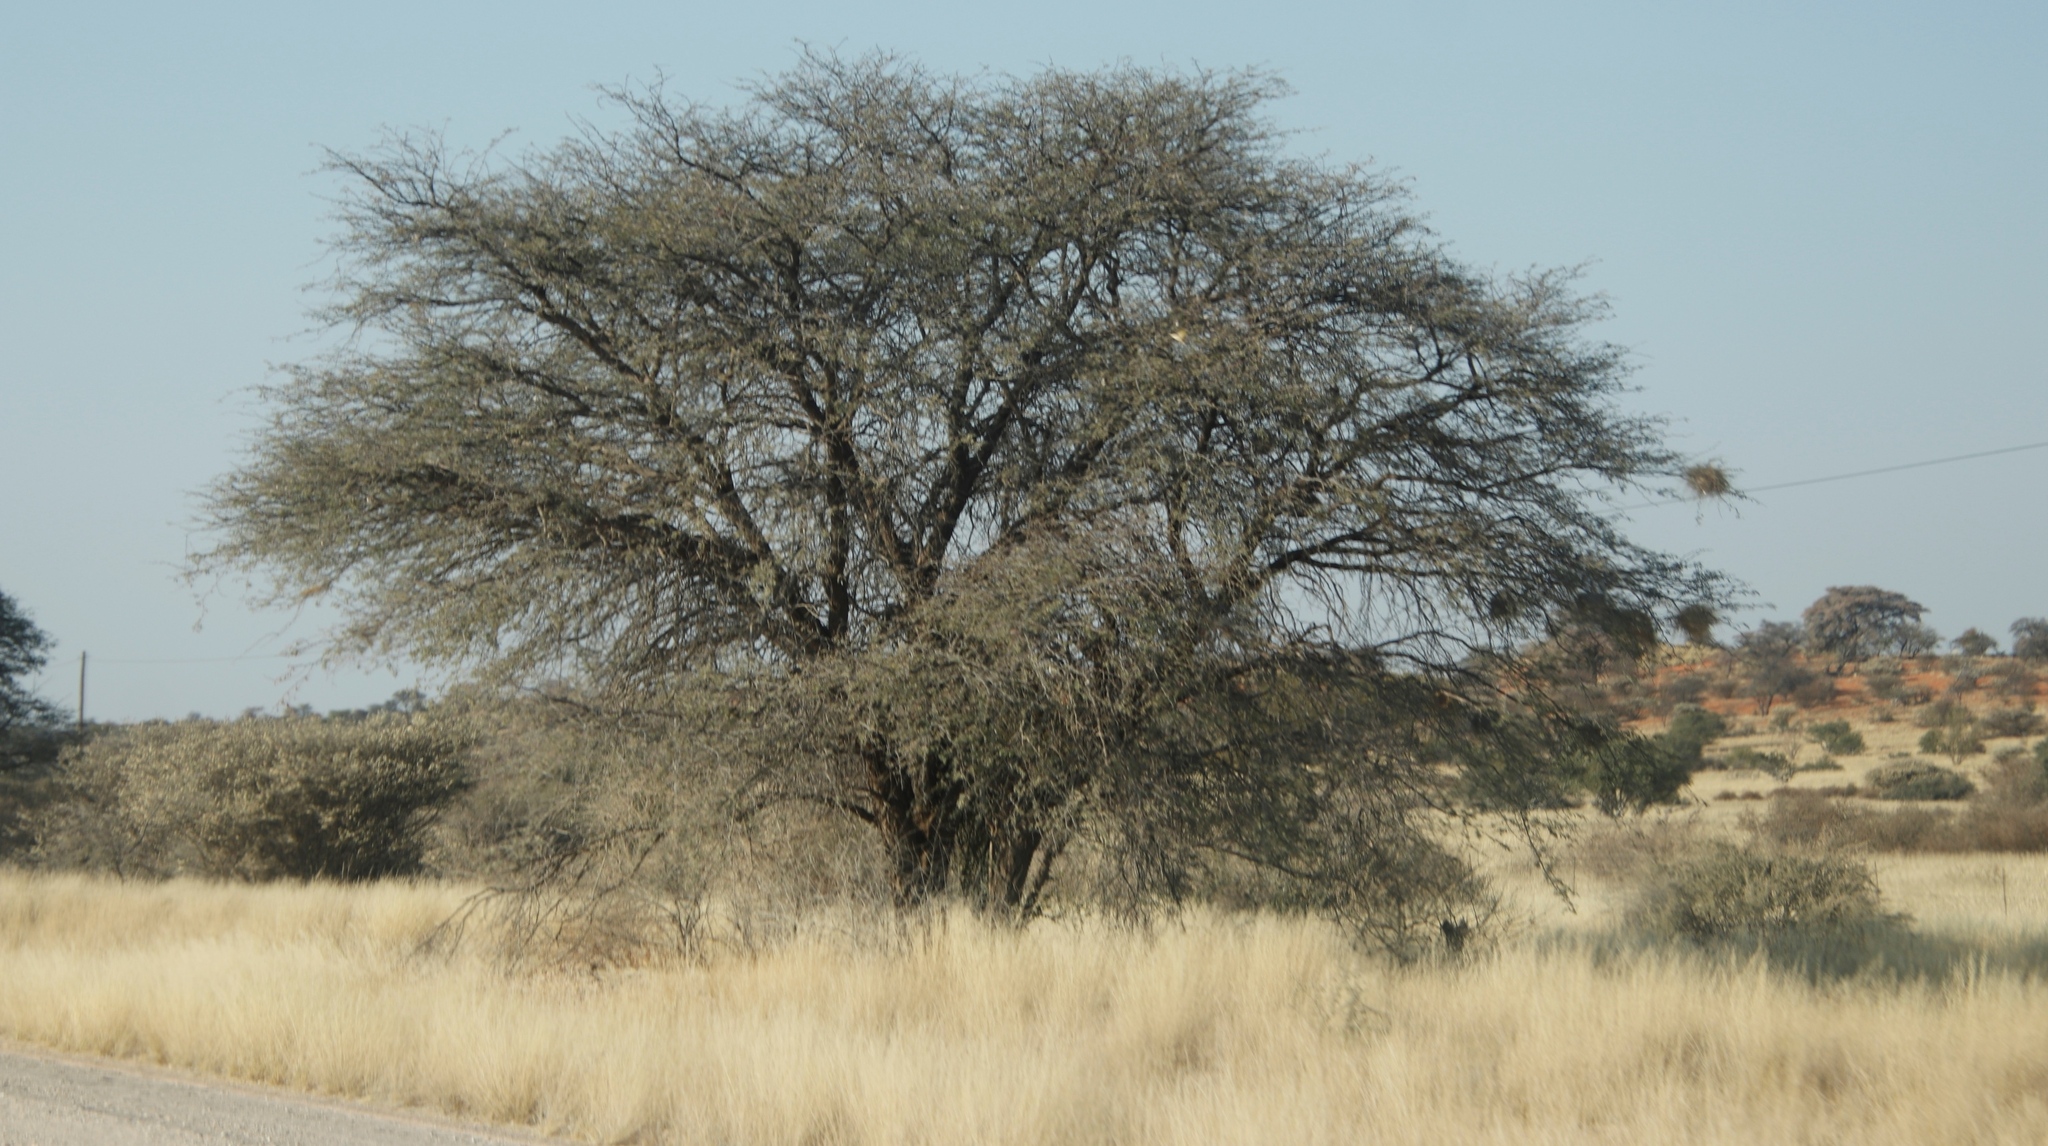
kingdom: Plantae
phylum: Tracheophyta
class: Magnoliopsida
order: Fabales
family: Fabaceae
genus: Vachellia
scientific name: Vachellia erioloba
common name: Camel thorn
